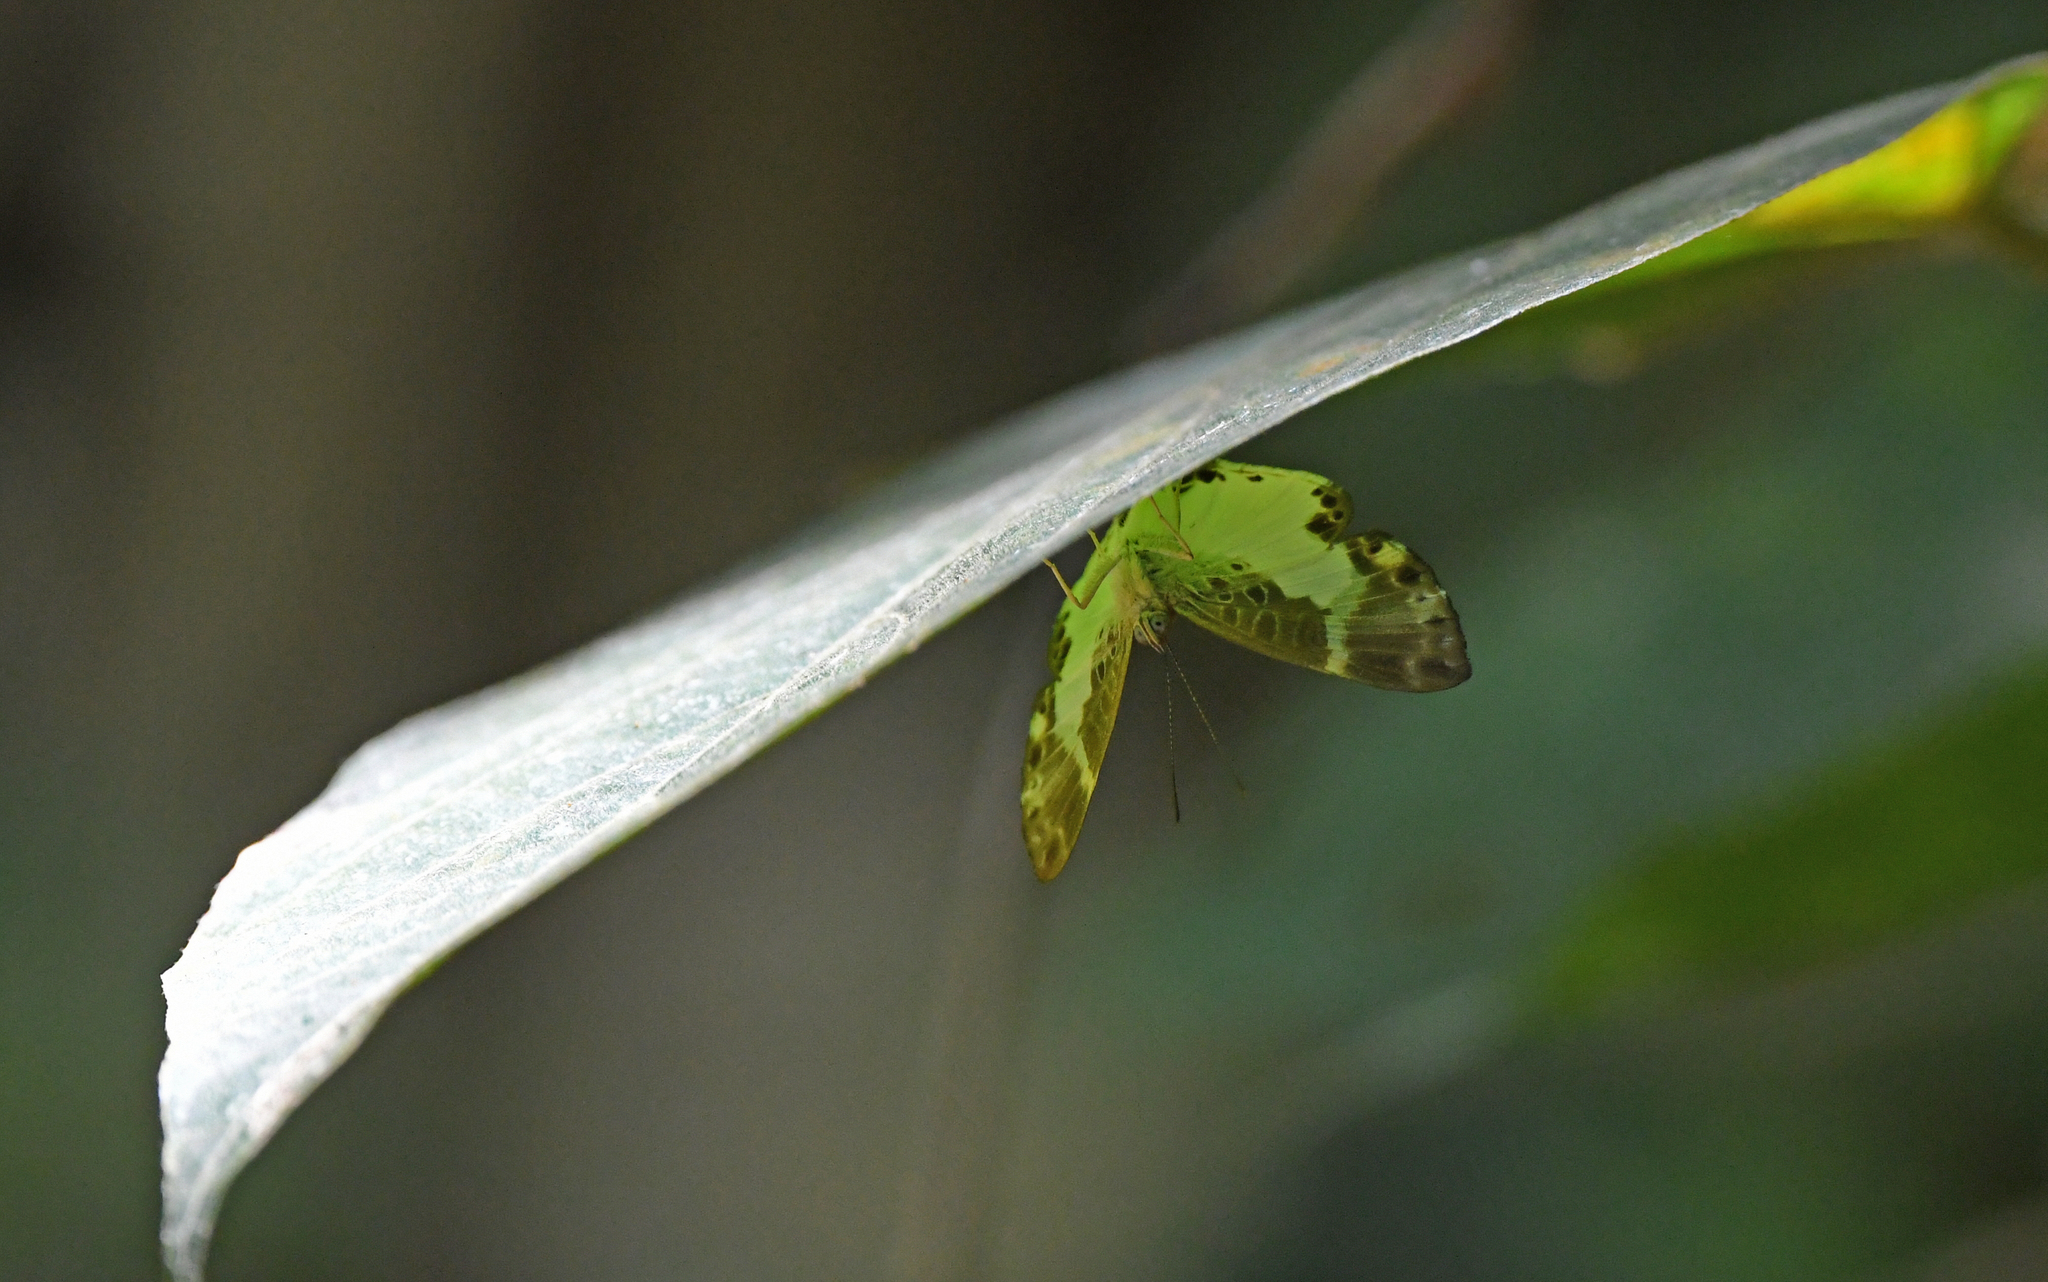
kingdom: Animalia
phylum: Arthropoda
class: Insecta
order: Lepidoptera
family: Riodinidae
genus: Juditha
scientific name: Juditha
